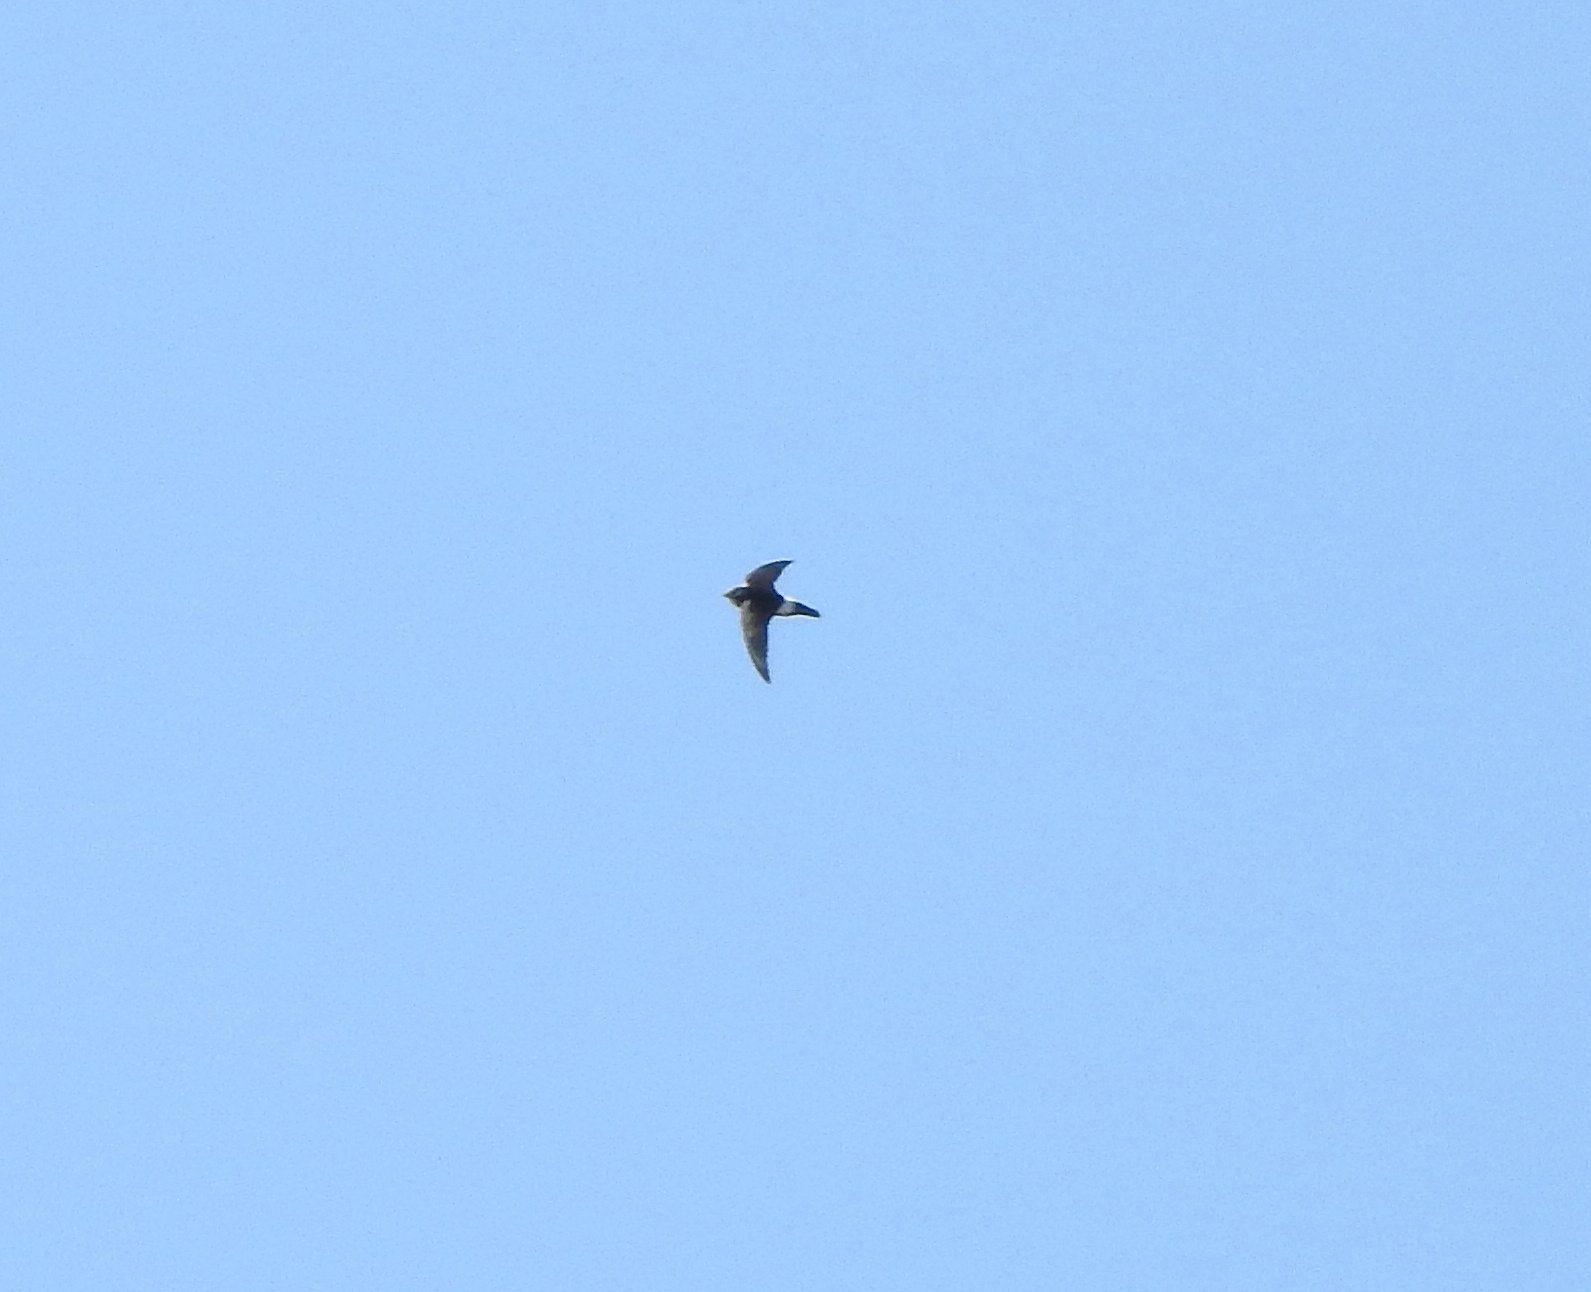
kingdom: Animalia
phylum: Chordata
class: Aves
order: Apodiformes
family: Apodidae
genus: Apus
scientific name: Apus affinis
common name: Little swift
